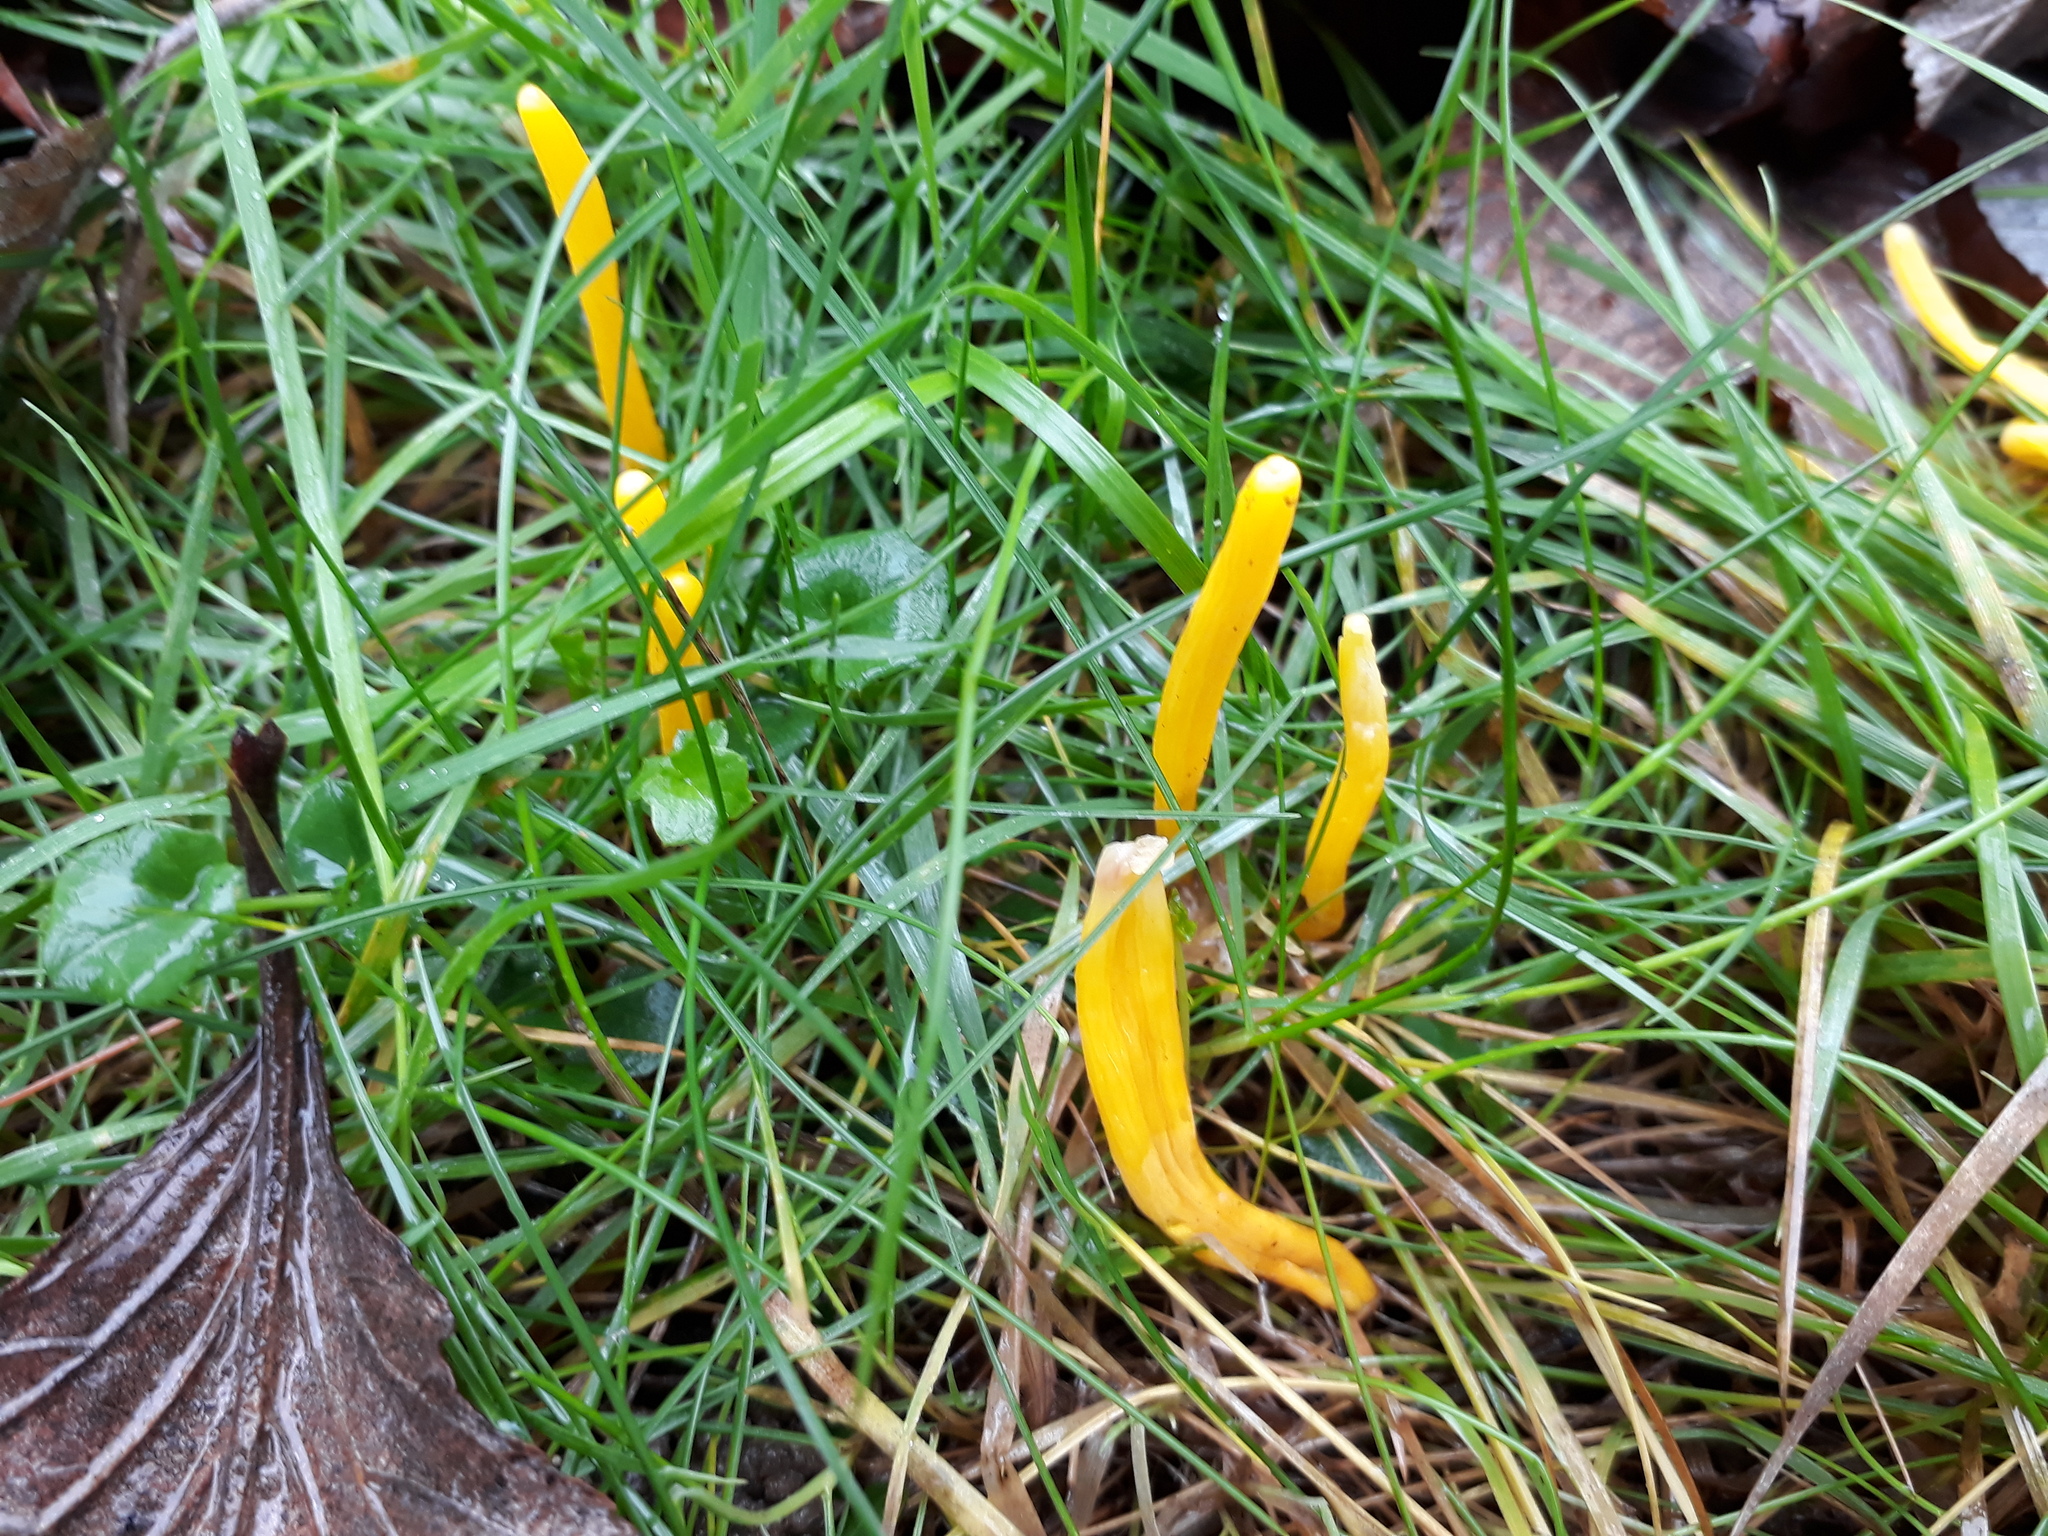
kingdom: Fungi
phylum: Basidiomycota
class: Agaricomycetes
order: Agaricales
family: Clavariaceae
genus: Clavulinopsis
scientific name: Clavulinopsis helvola
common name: Yellow club
